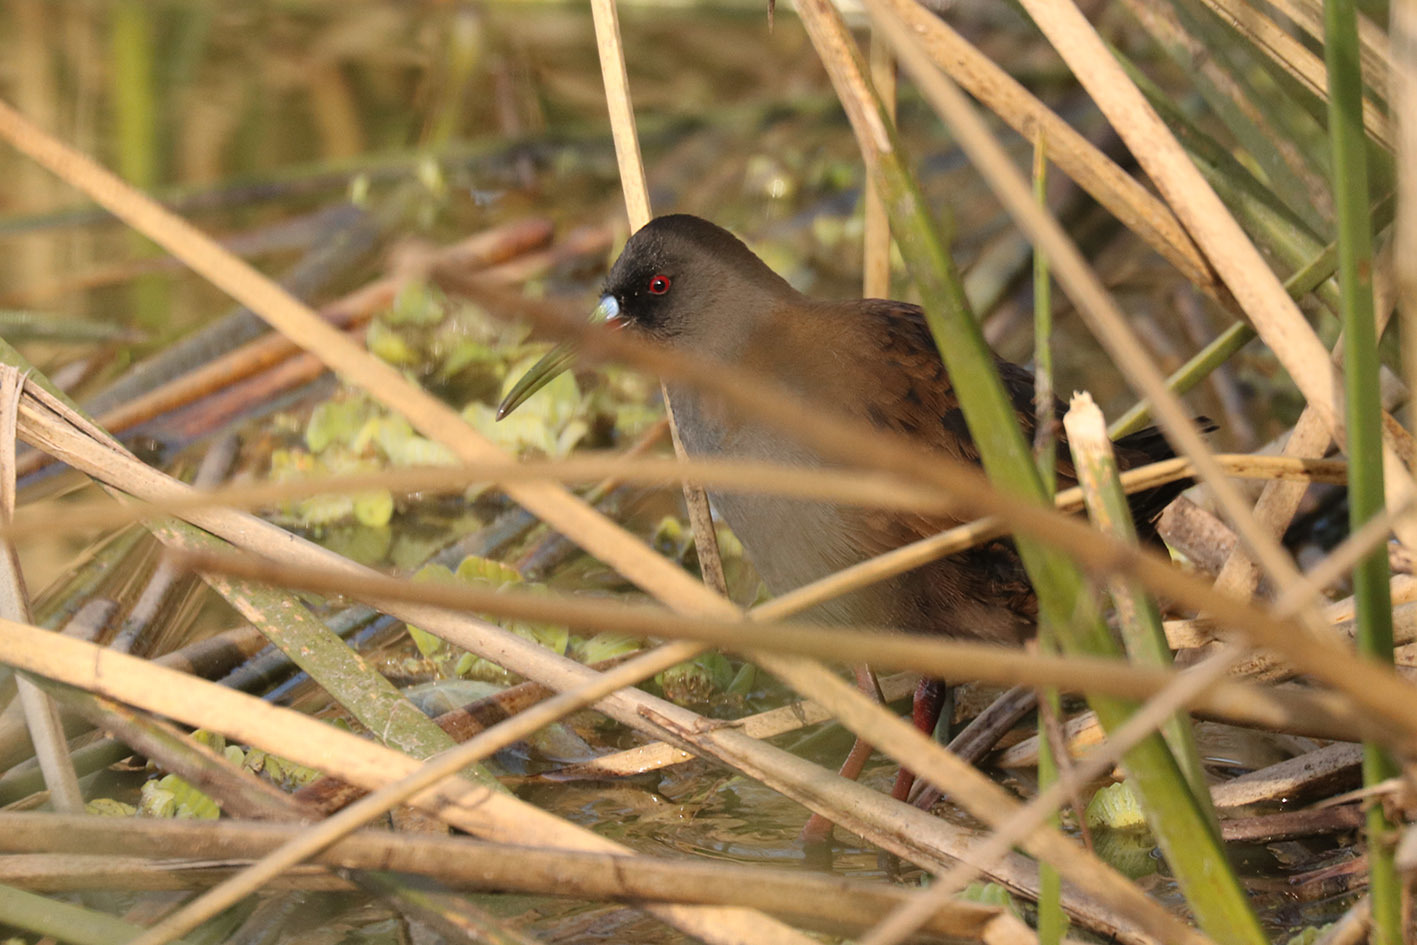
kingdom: Animalia
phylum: Chordata
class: Aves
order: Gruiformes
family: Rallidae
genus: Pardirallus
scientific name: Pardirallus sanguinolentus
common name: Plumbeous rail
